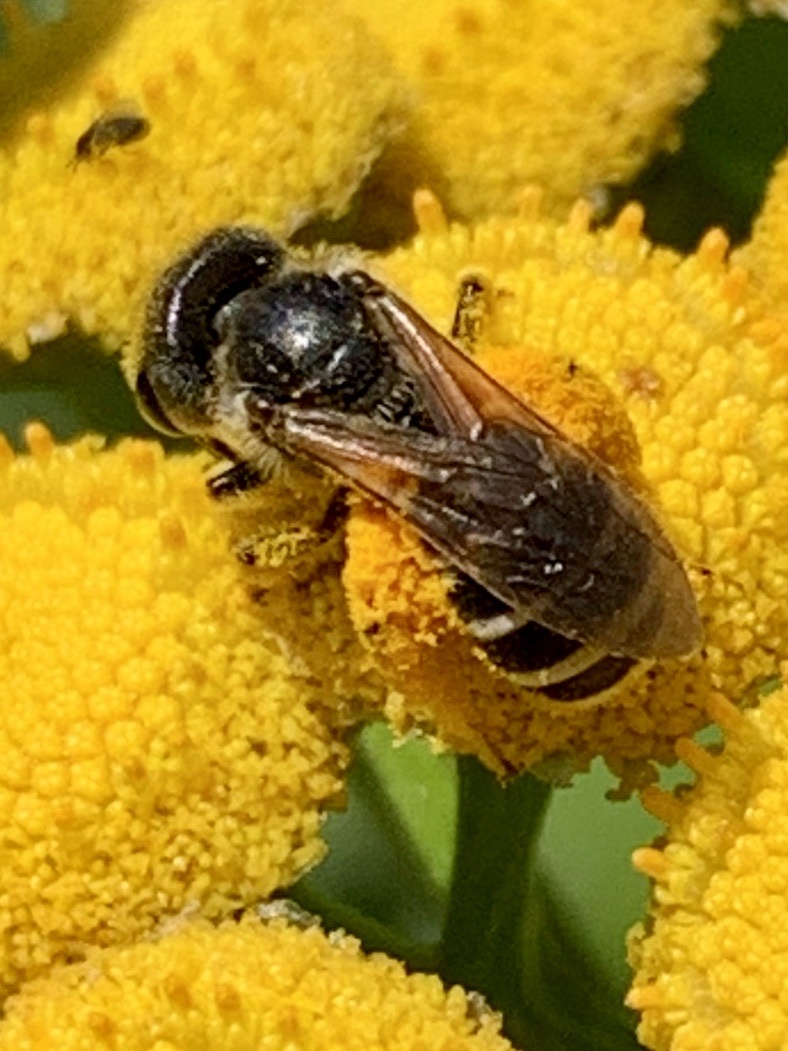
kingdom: Animalia
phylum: Arthropoda
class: Insecta
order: Hymenoptera
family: Halictidae
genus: Halictus
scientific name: Halictus ligatus
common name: Ligated furrow bee
